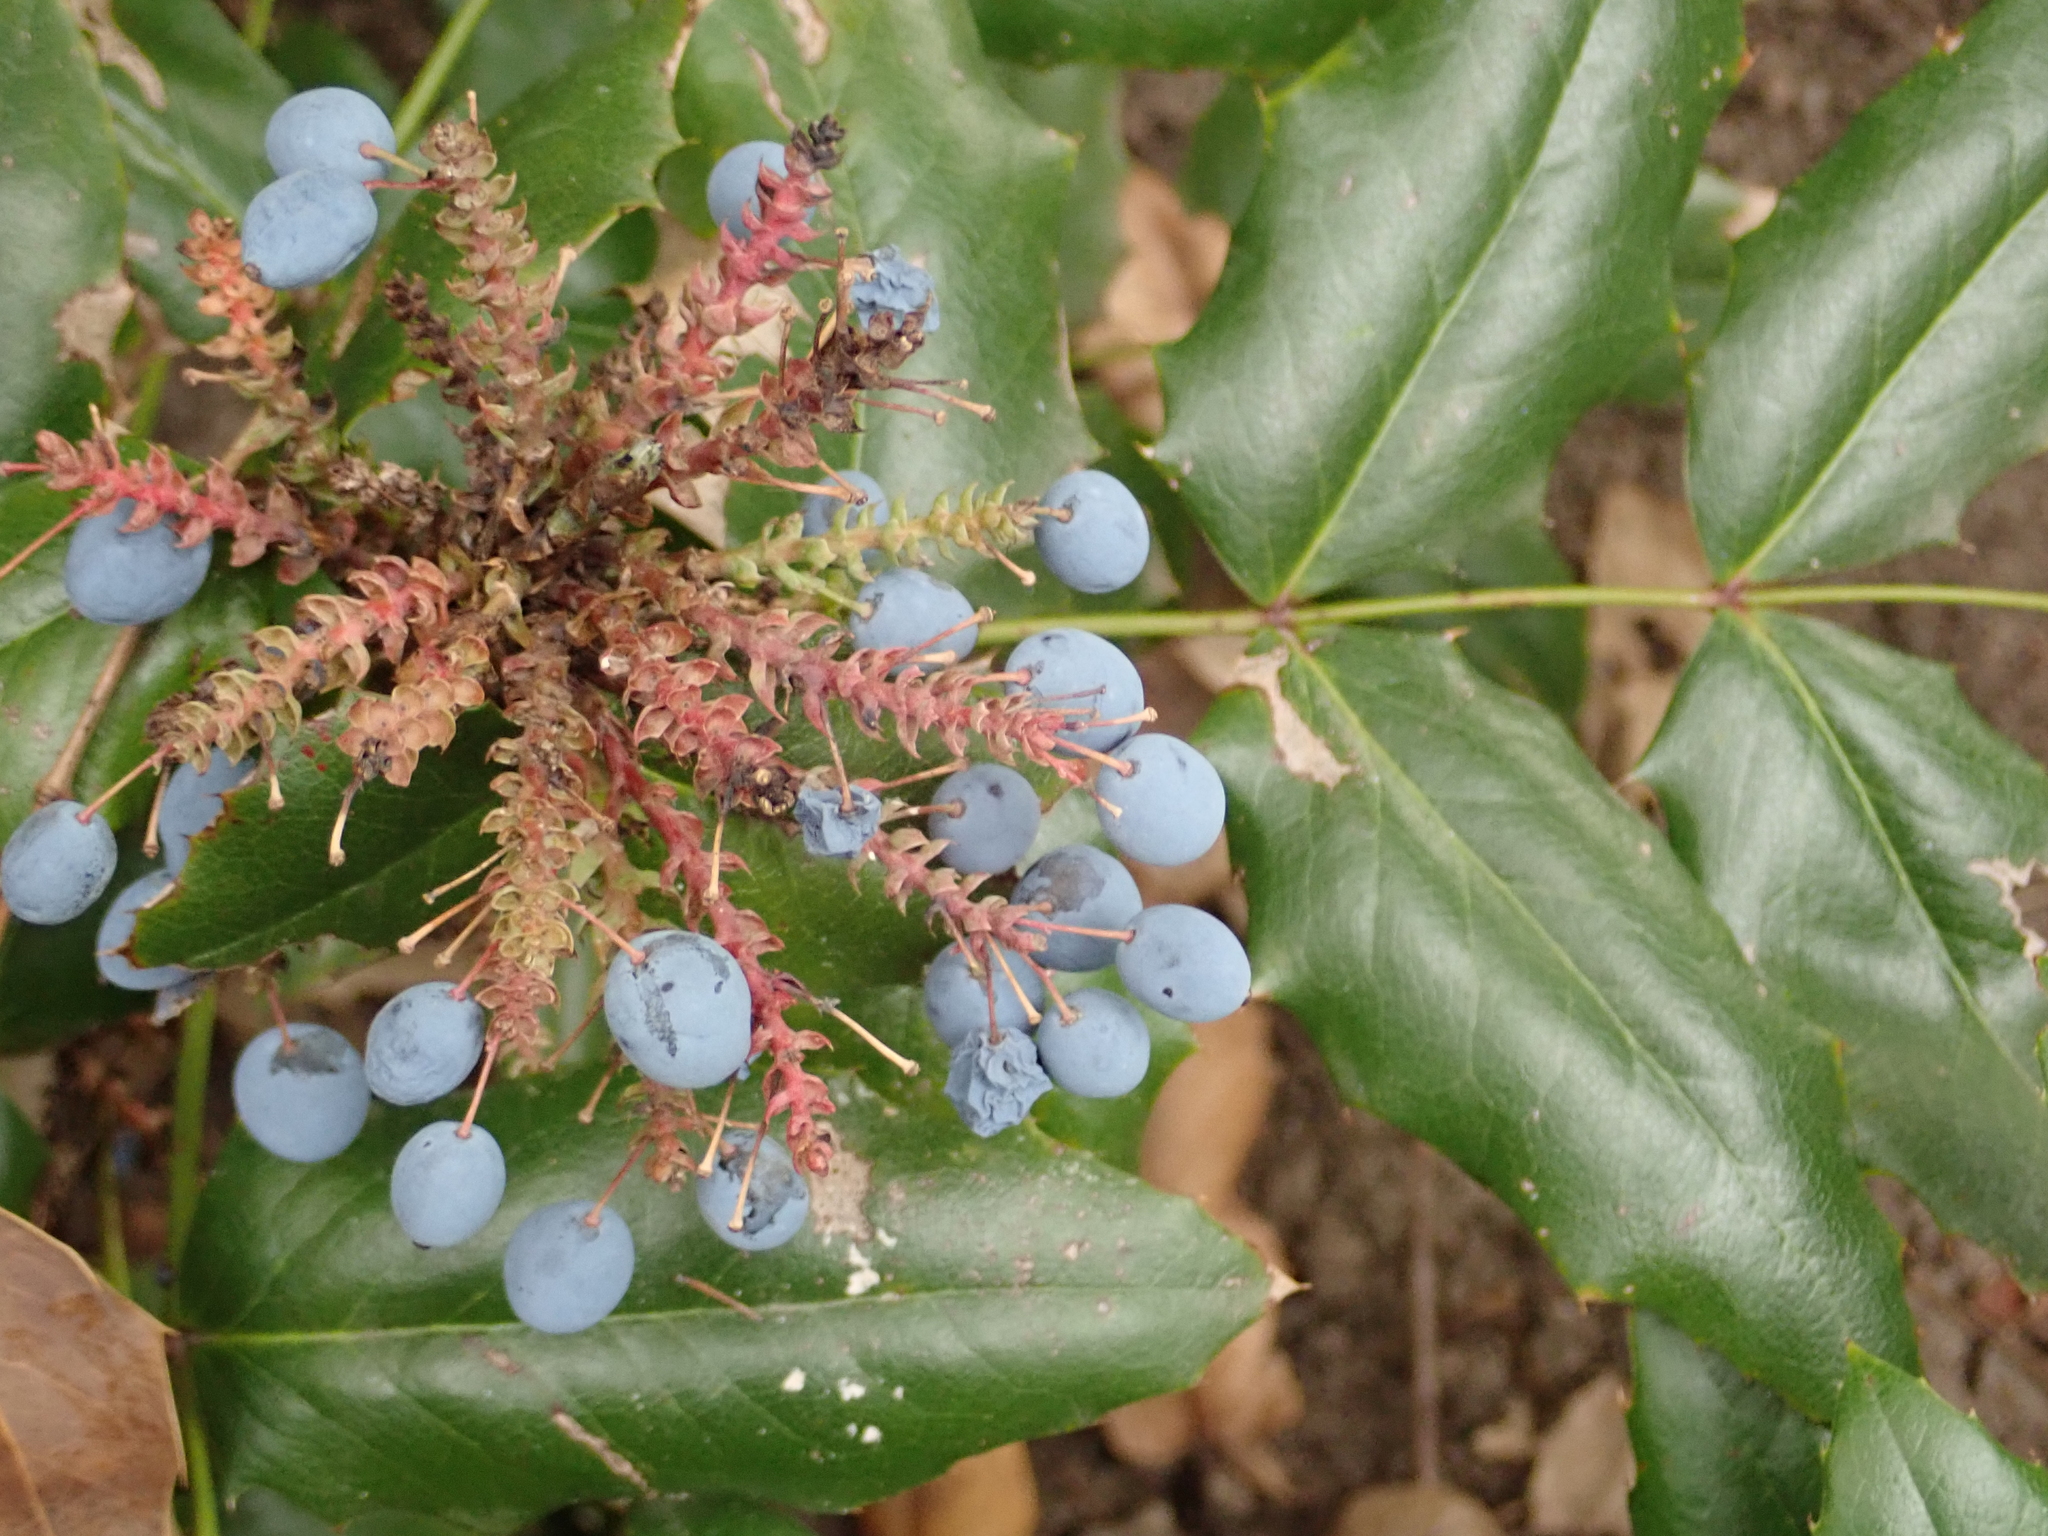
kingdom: Plantae
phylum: Tracheophyta
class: Magnoliopsida
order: Ranunculales
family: Berberidaceae
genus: Mahonia
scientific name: Mahonia aquifolium
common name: Oregon-grape
